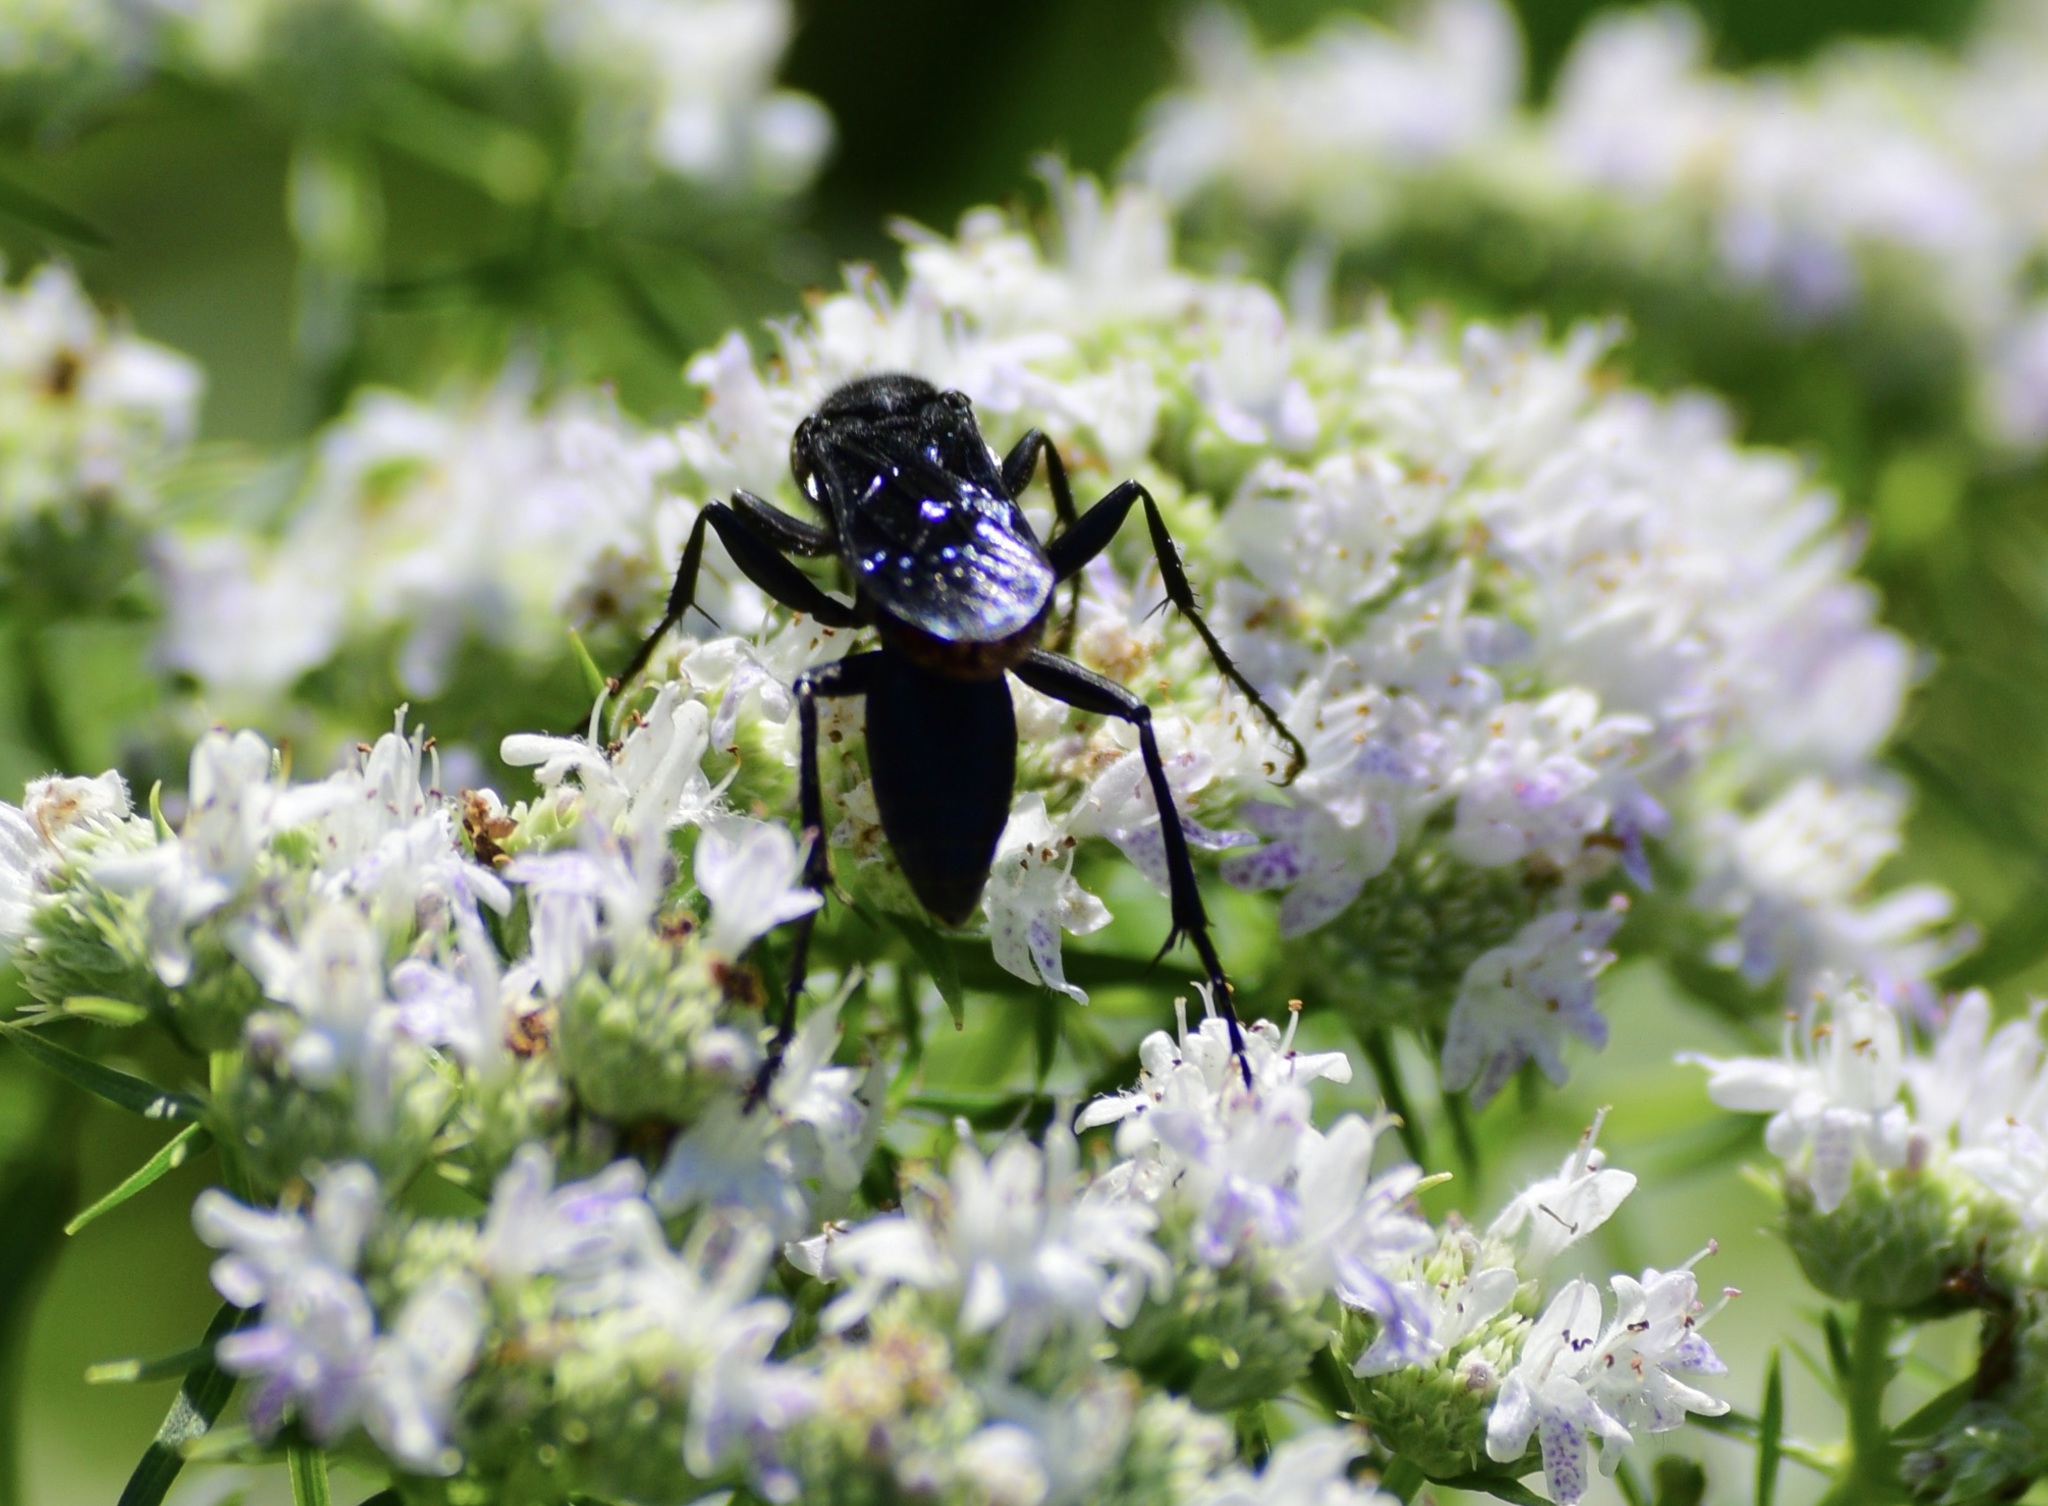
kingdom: Animalia
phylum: Arthropoda
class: Insecta
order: Hymenoptera
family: Sphecidae
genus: Sphex
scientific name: Sphex pensylvanicus
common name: Great black digger wasp
